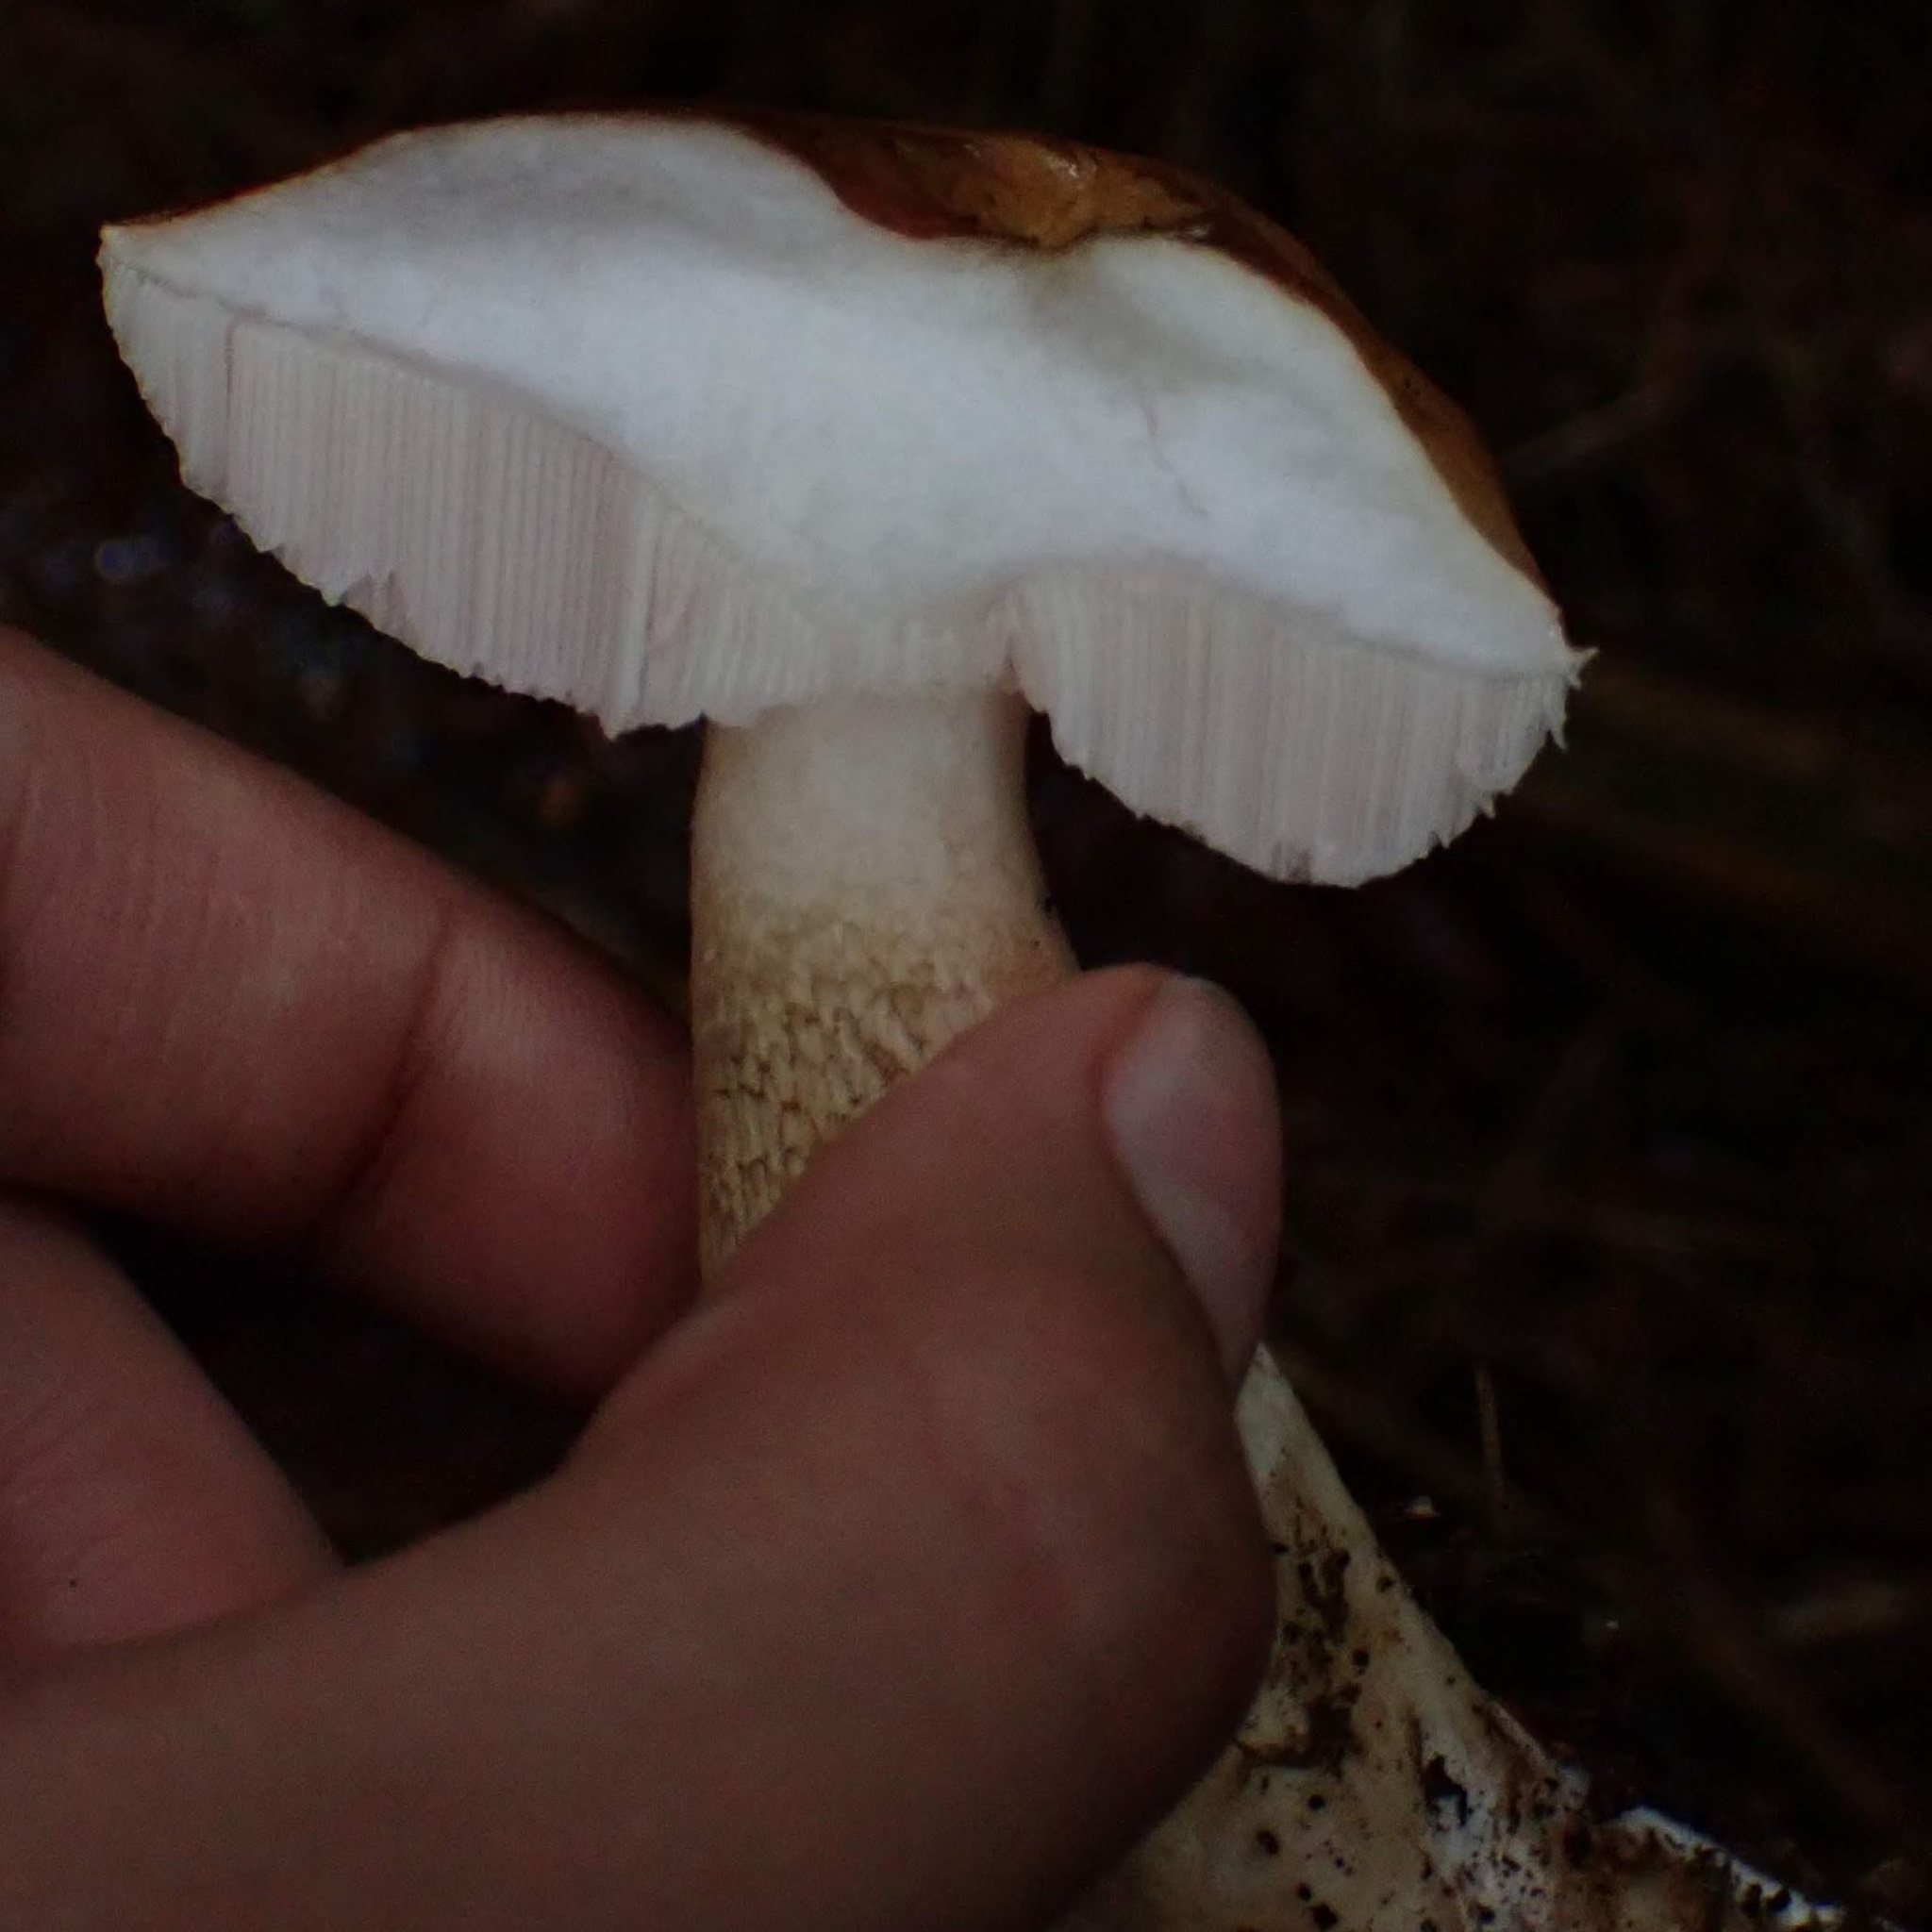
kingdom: Fungi
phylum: Basidiomycota
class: Agaricomycetes
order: Boletales
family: Boletaceae
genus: Tylopilus
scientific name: Tylopilus felleus
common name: Bitter bolete
